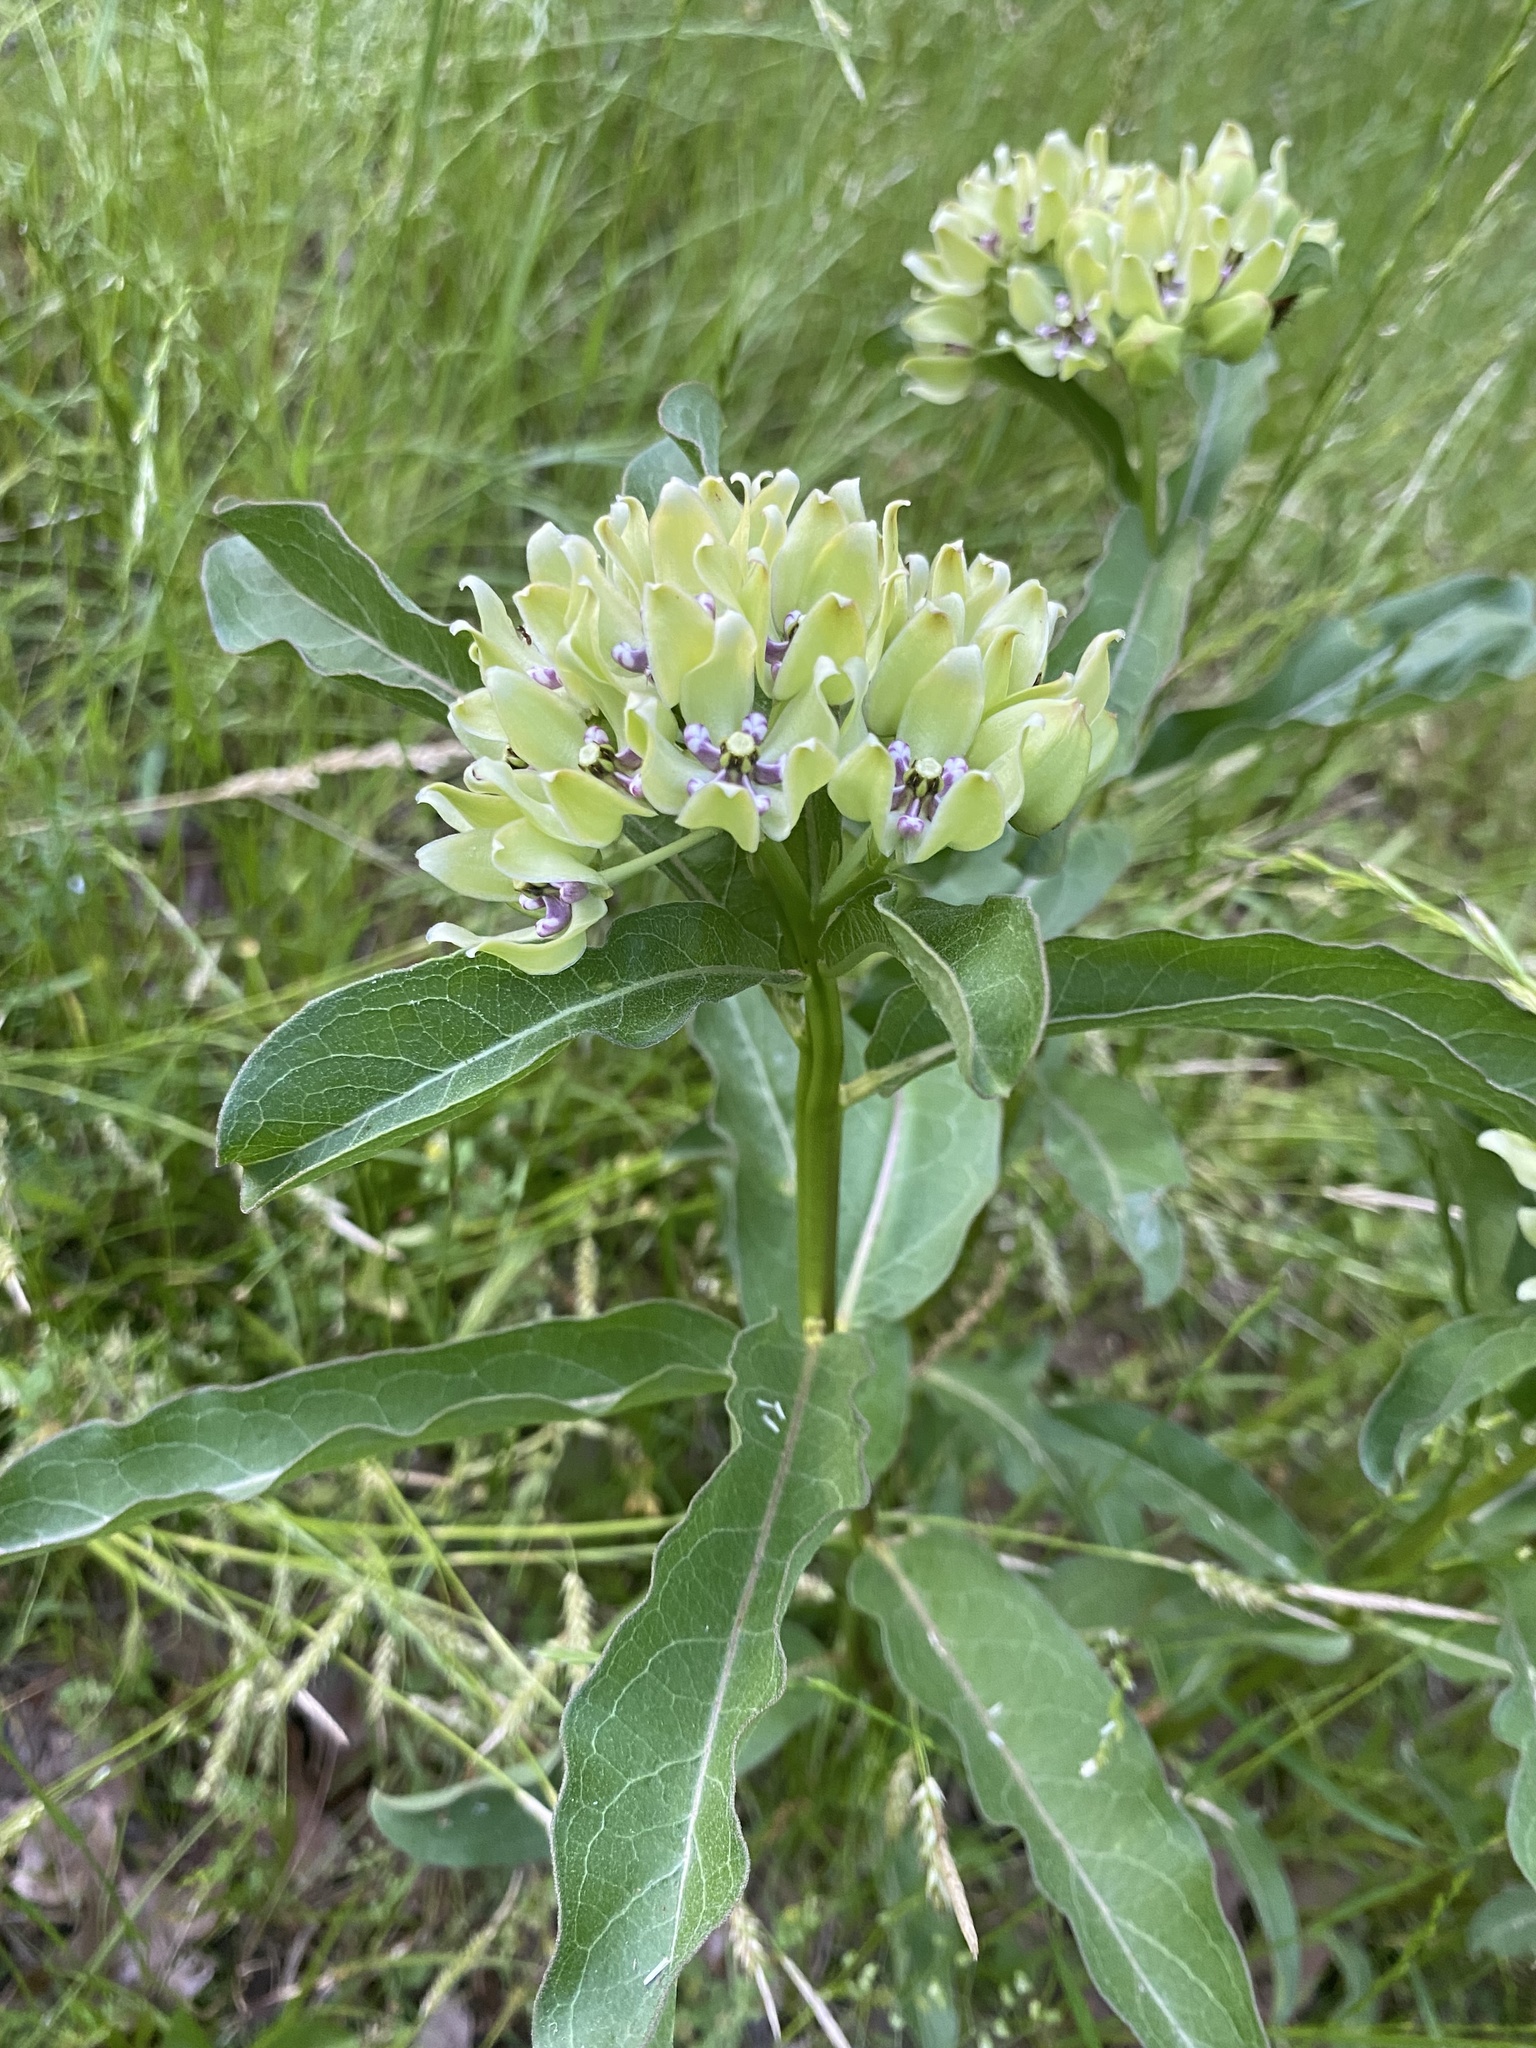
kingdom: Plantae
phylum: Tracheophyta
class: Magnoliopsida
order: Gentianales
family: Apocynaceae
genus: Asclepias
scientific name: Asclepias viridis
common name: Antelope-horns
